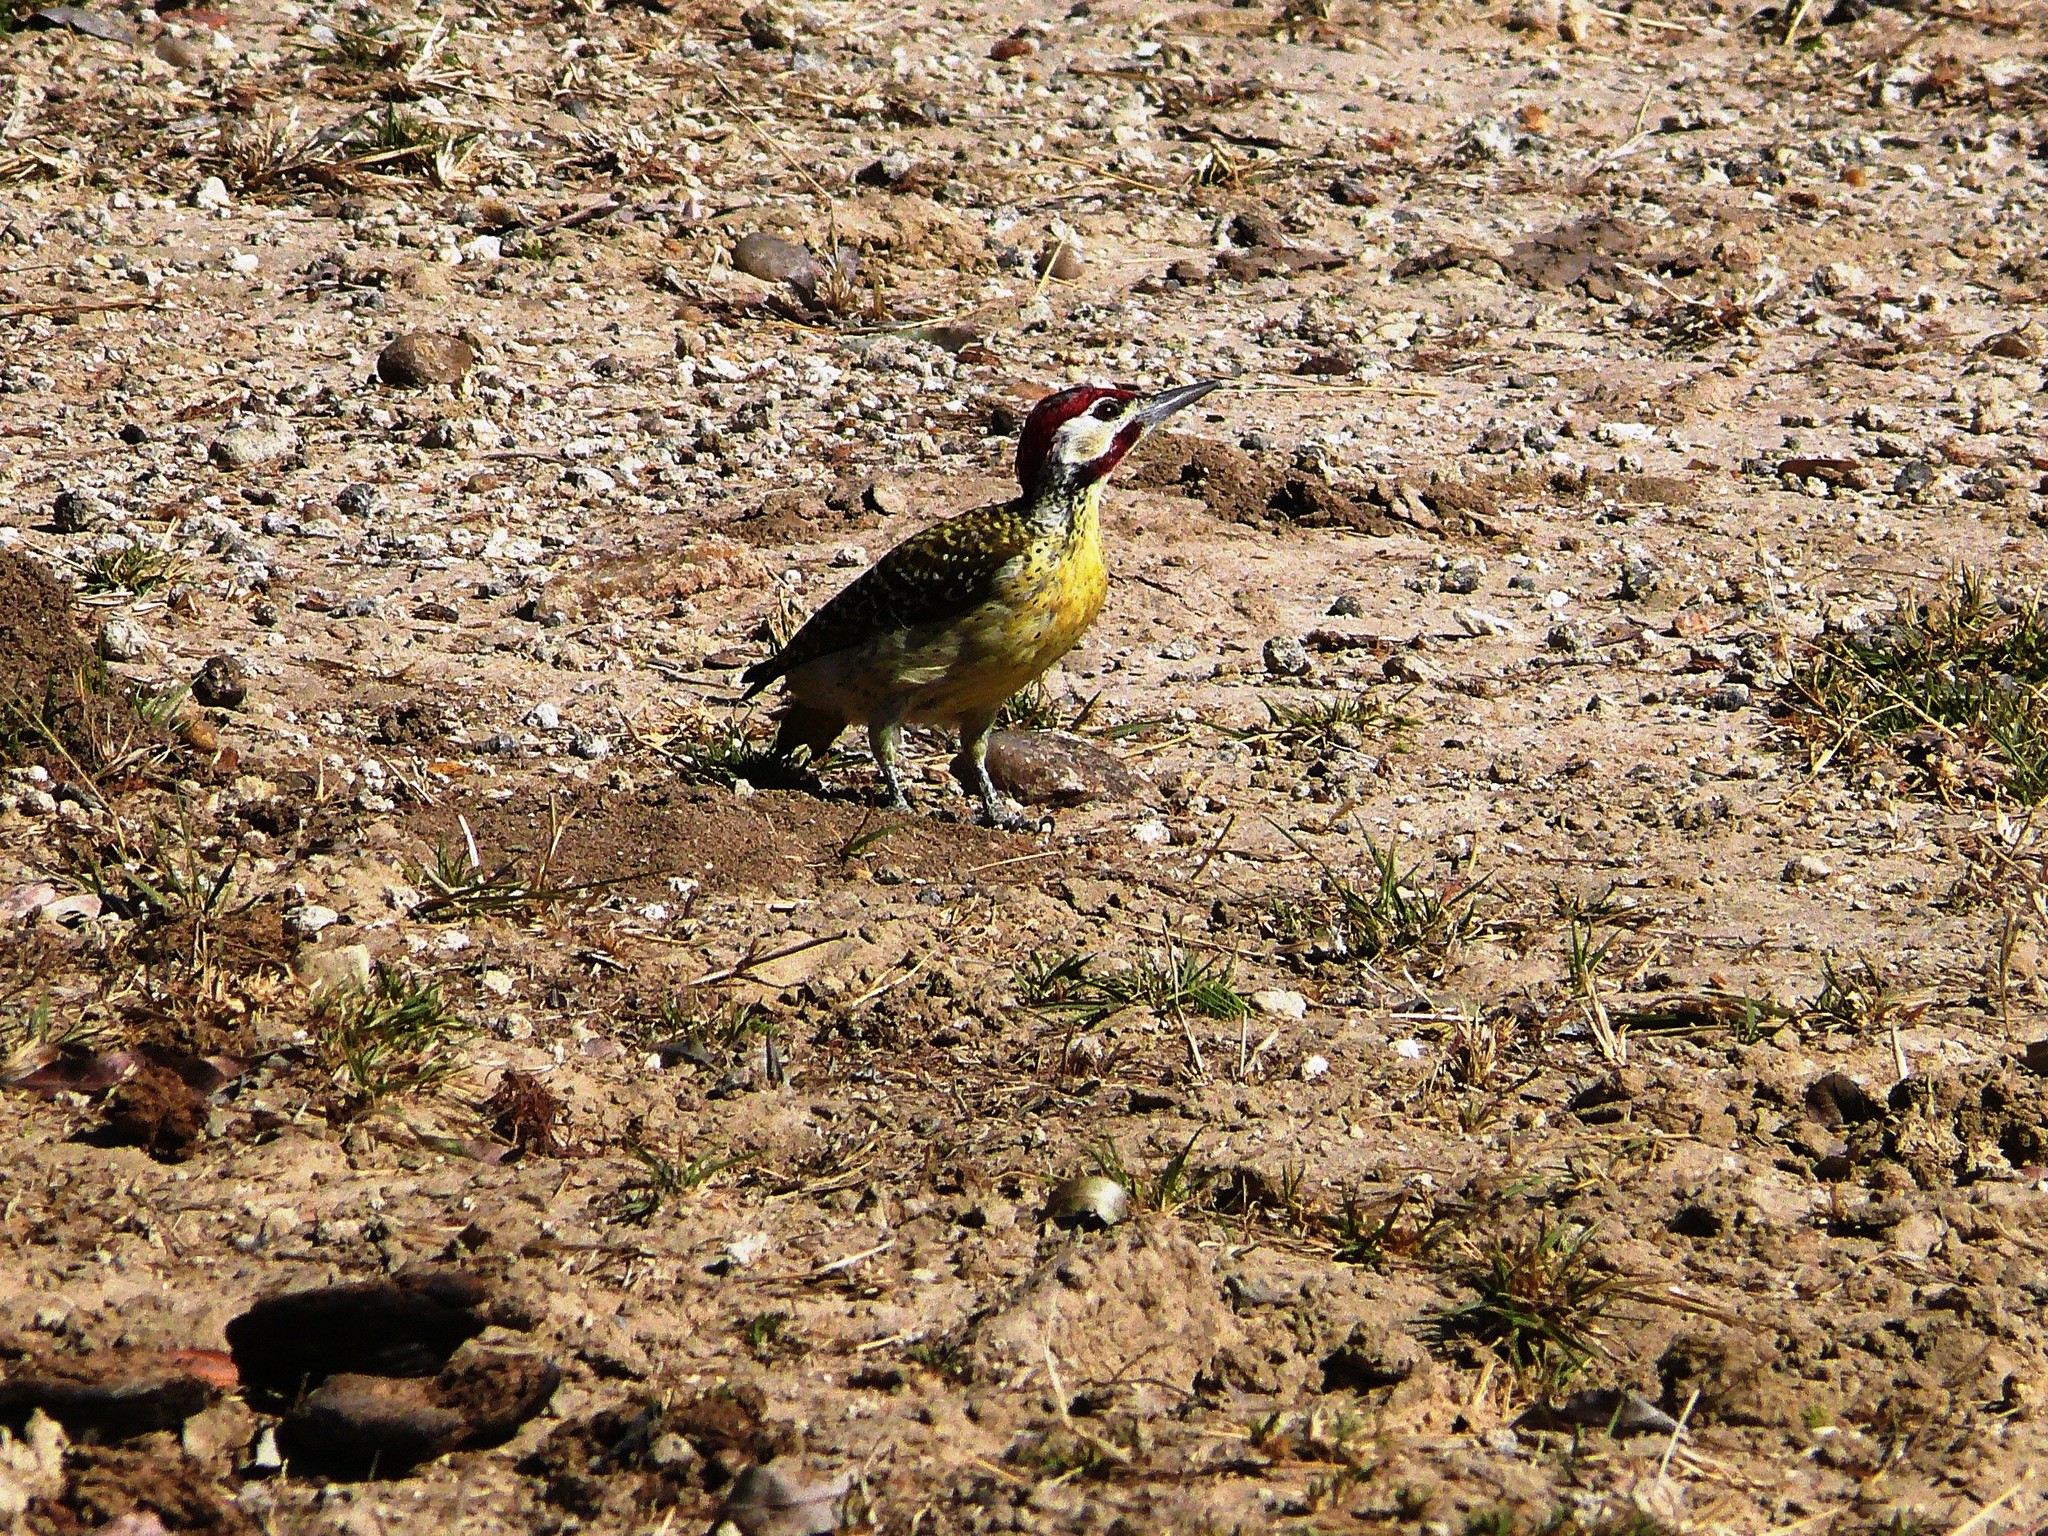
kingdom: Animalia
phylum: Chordata
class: Aves
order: Piciformes
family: Picidae
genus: Campethera
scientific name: Campethera bennettii
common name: Bennett's woodpecker
